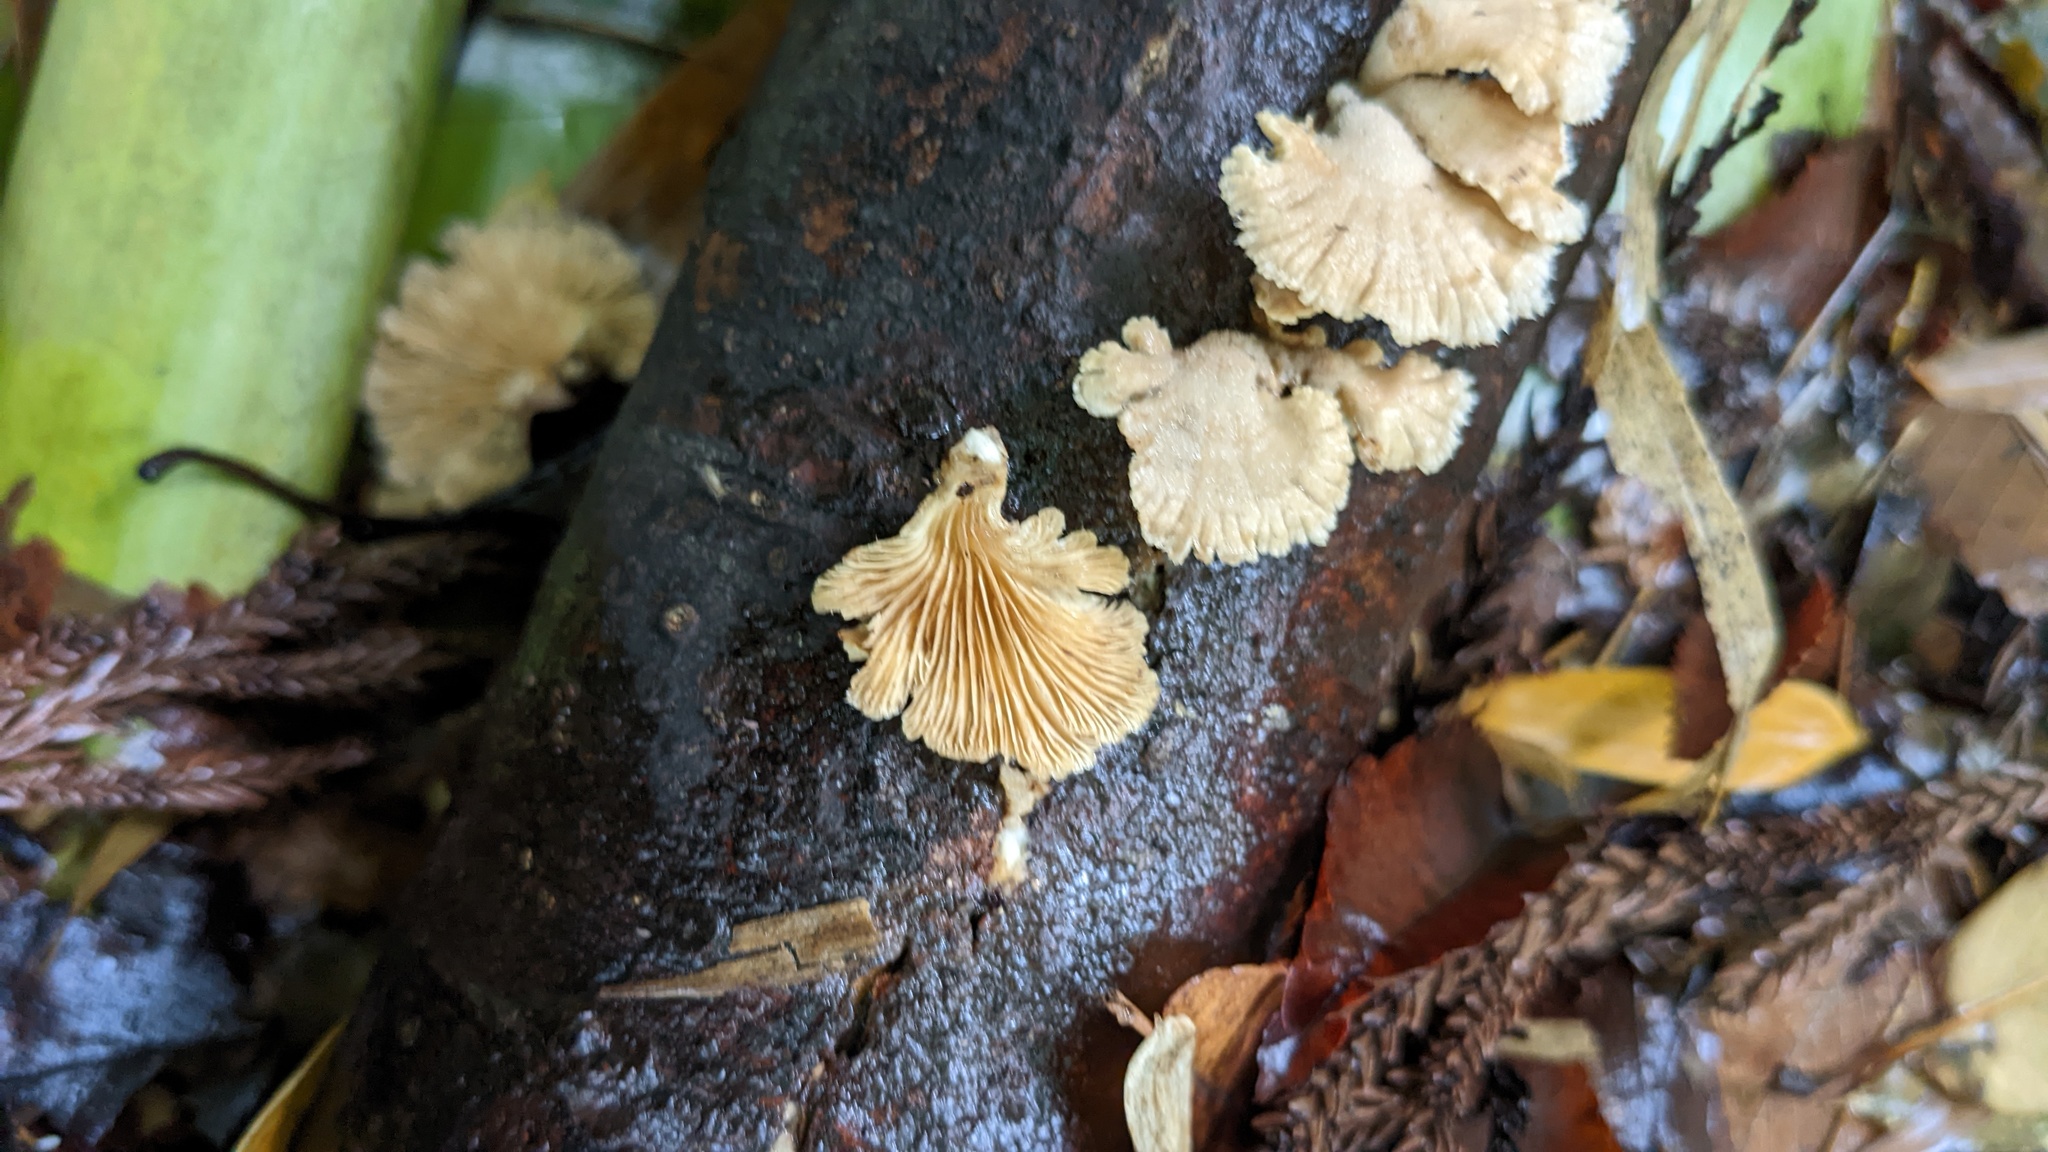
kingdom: Fungi
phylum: Basidiomycota
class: Agaricomycetes
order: Agaricales
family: Schizophyllaceae
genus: Schizophyllum
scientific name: Schizophyllum commune
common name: Common porecrust
